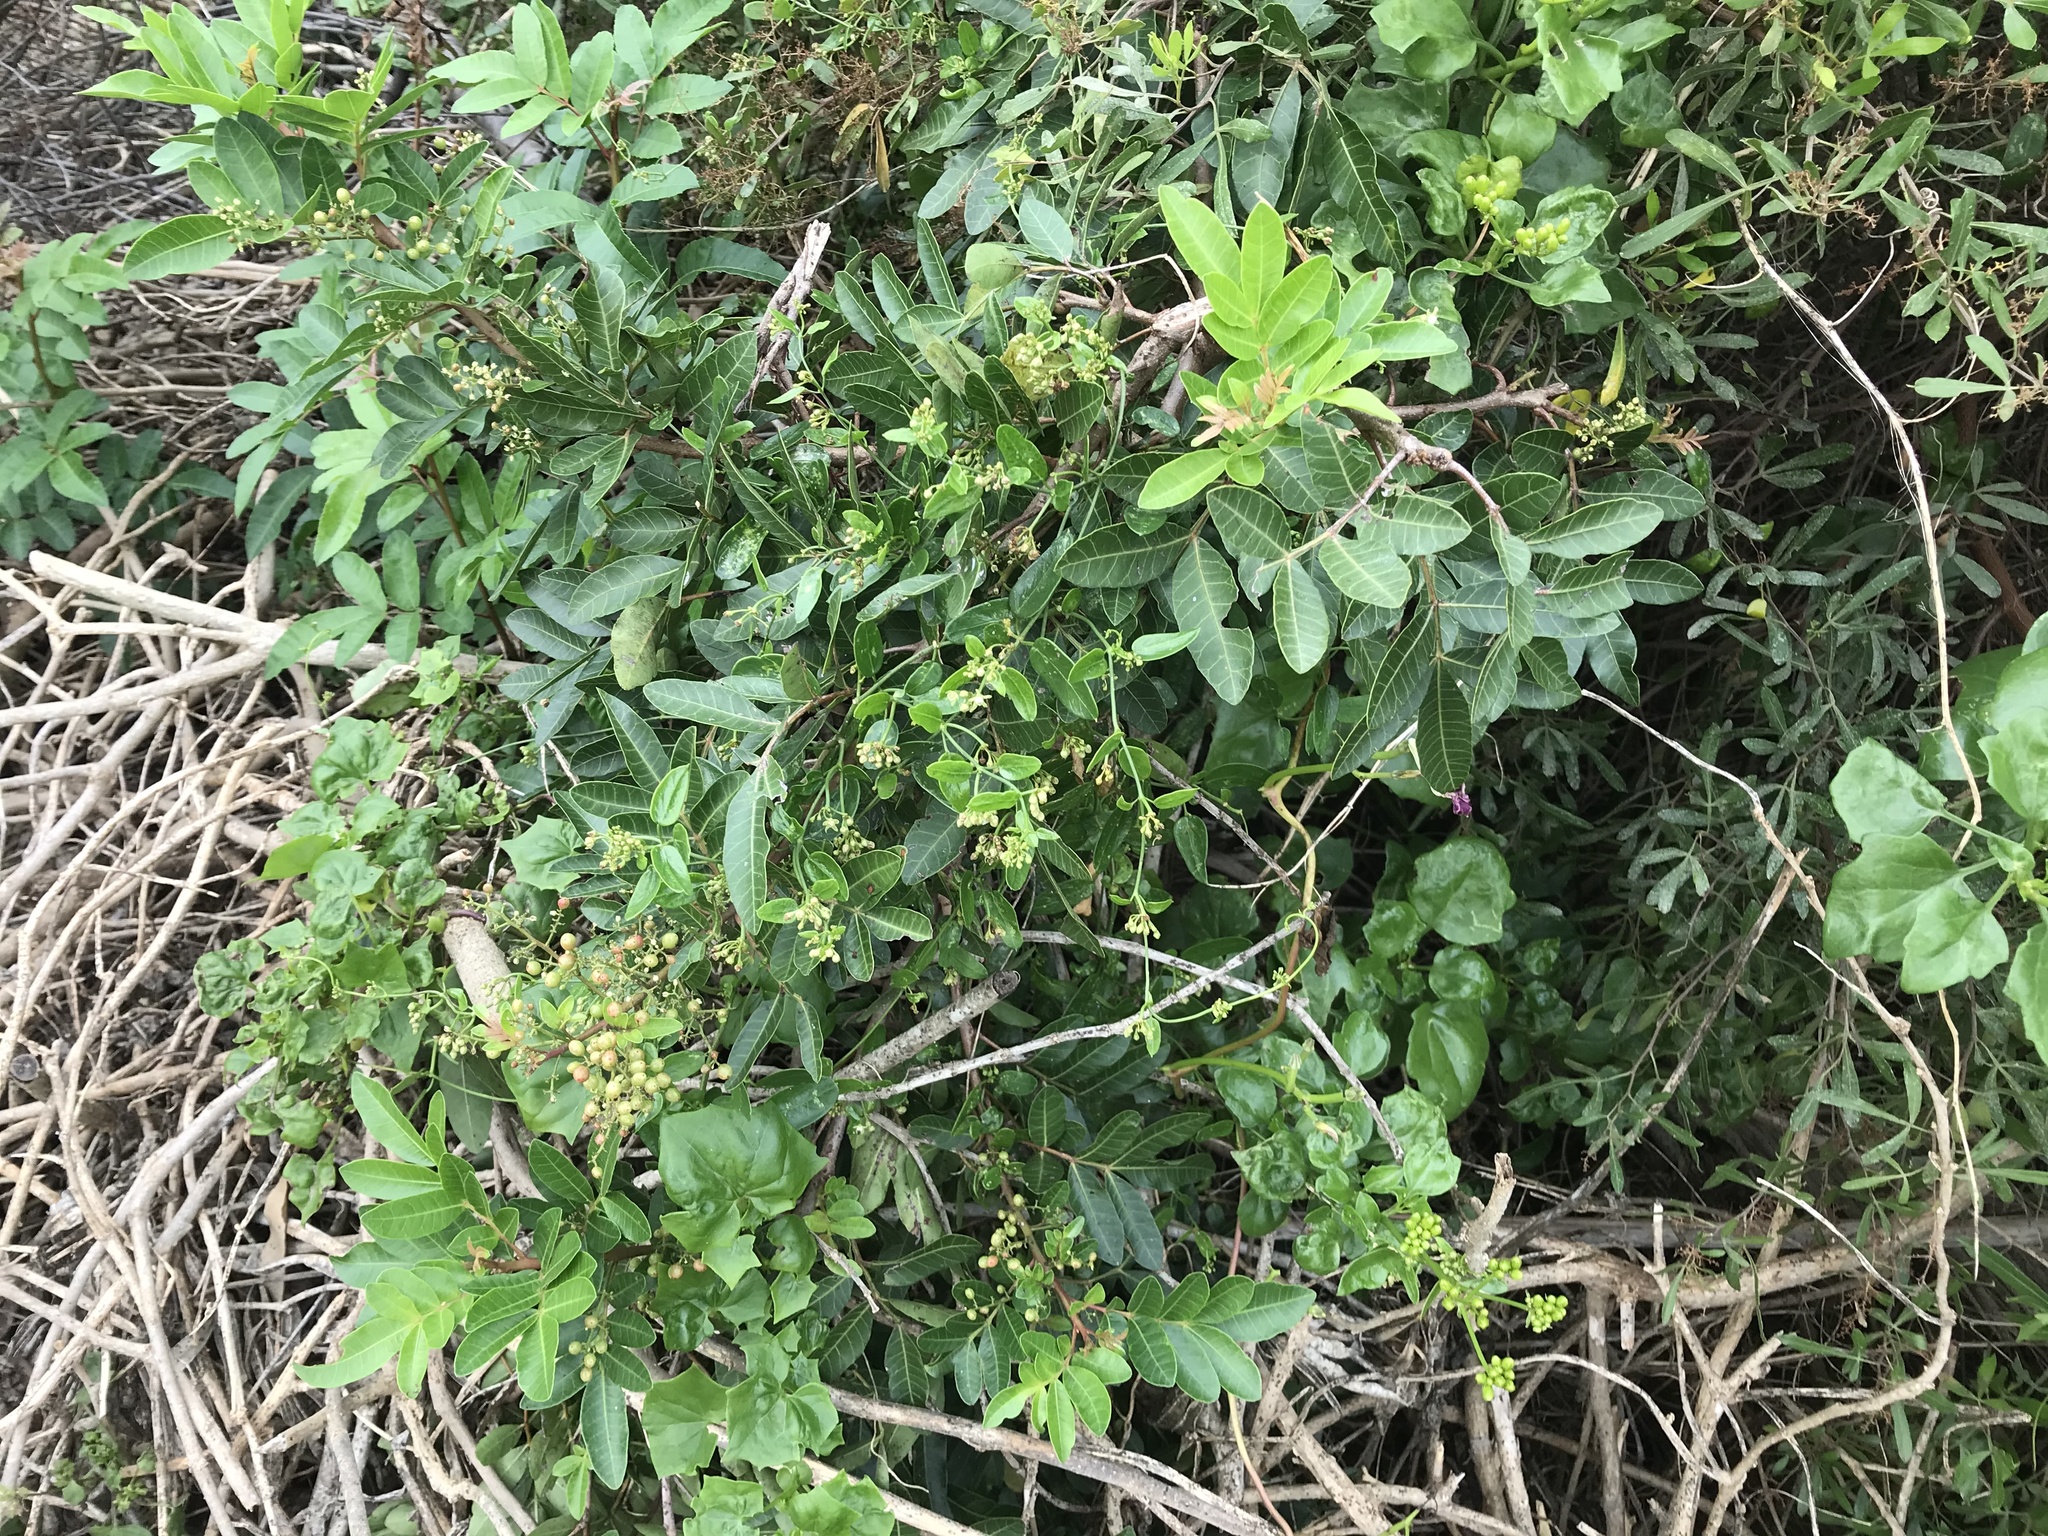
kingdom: Plantae
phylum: Tracheophyta
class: Magnoliopsida
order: Sapindales
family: Anacardiaceae
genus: Schinus
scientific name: Schinus terebinthifolia
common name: Brazilian peppertree
